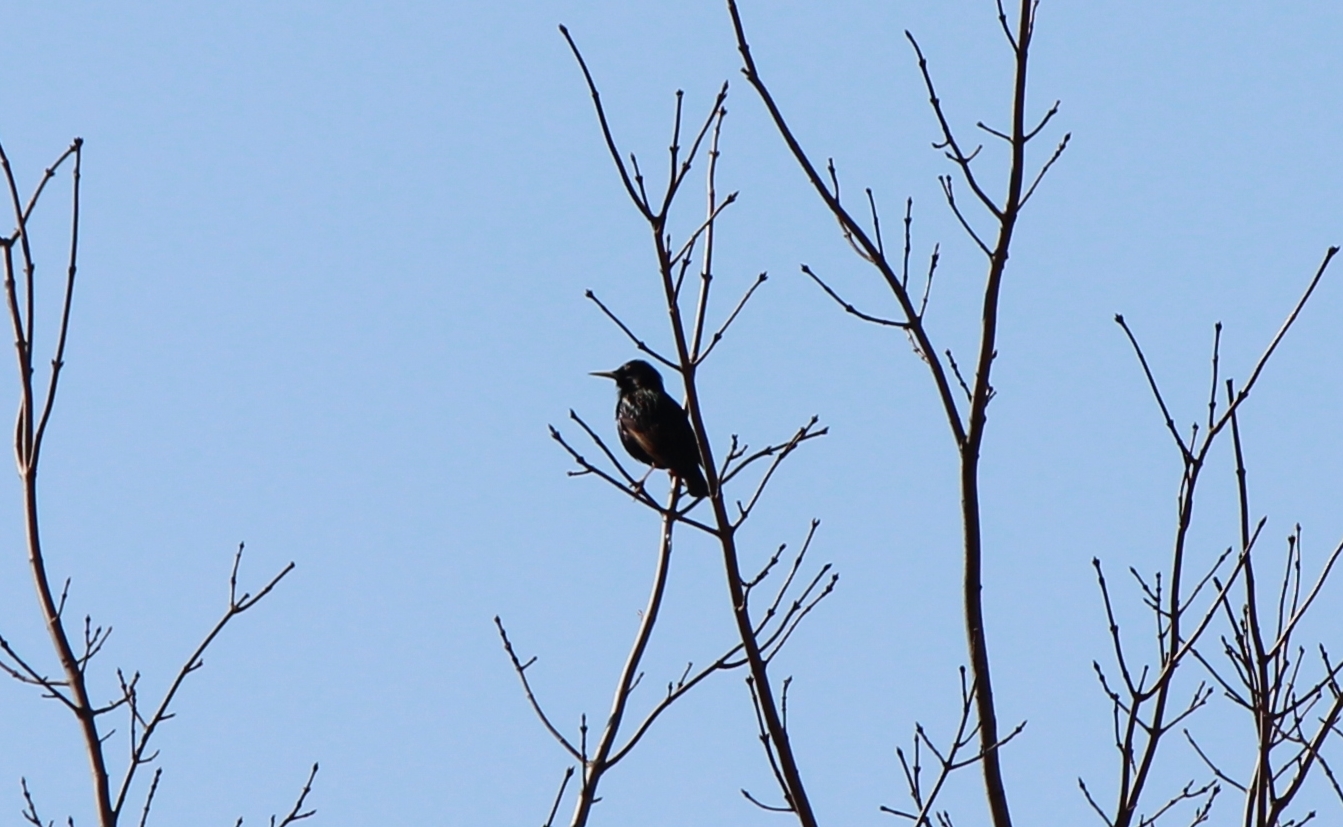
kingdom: Animalia
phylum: Chordata
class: Aves
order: Passeriformes
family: Sturnidae
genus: Sturnus
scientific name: Sturnus vulgaris
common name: Common starling
